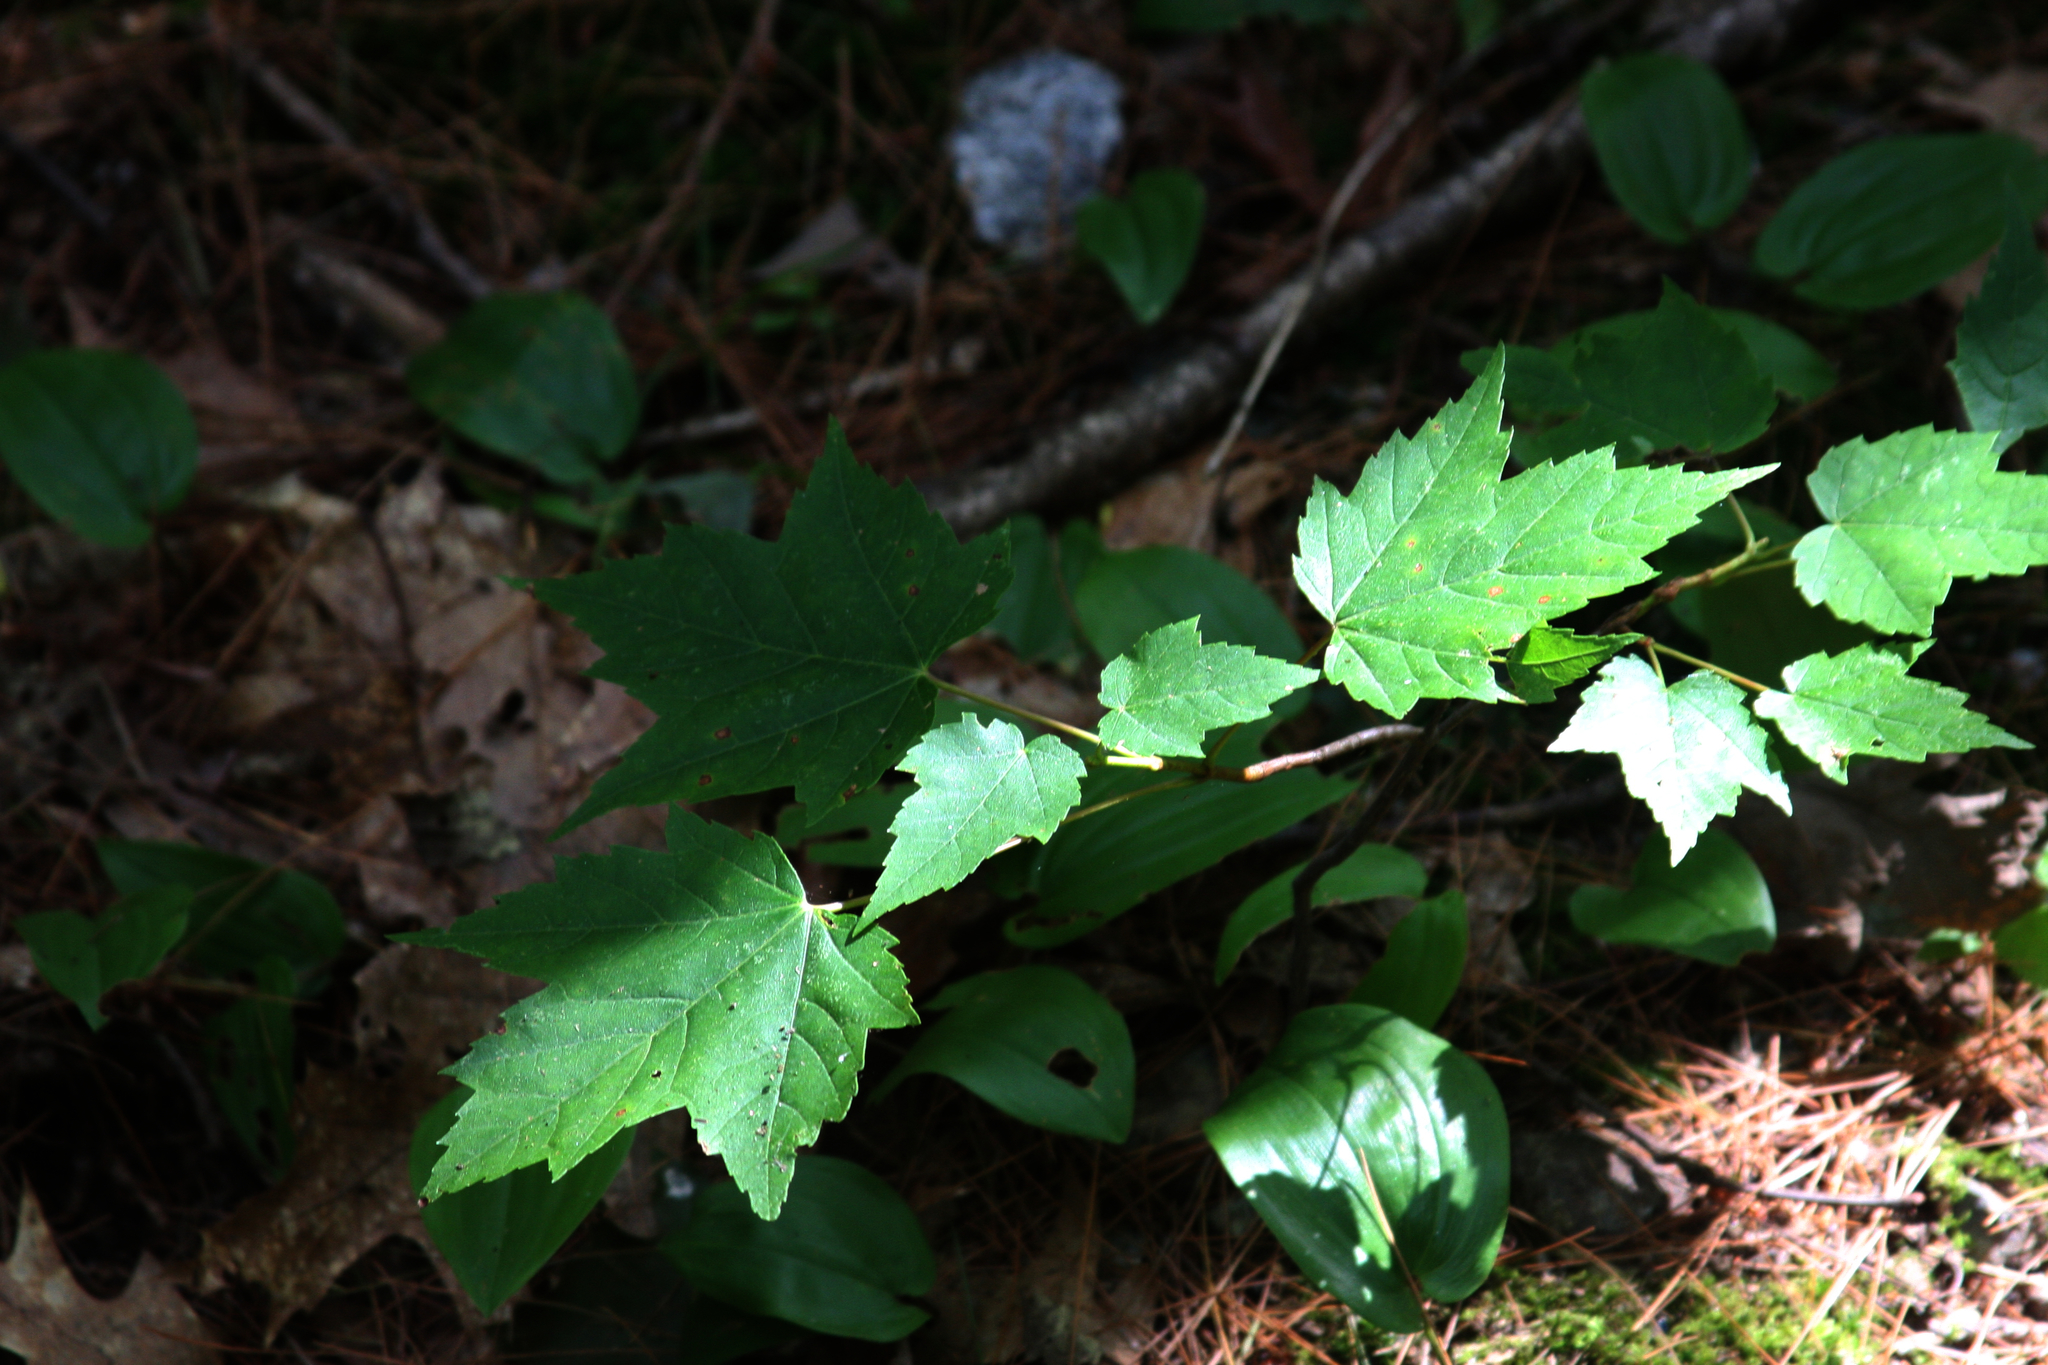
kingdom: Plantae
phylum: Tracheophyta
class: Magnoliopsida
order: Sapindales
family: Sapindaceae
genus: Acer
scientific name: Acer rubrum
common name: Red maple
